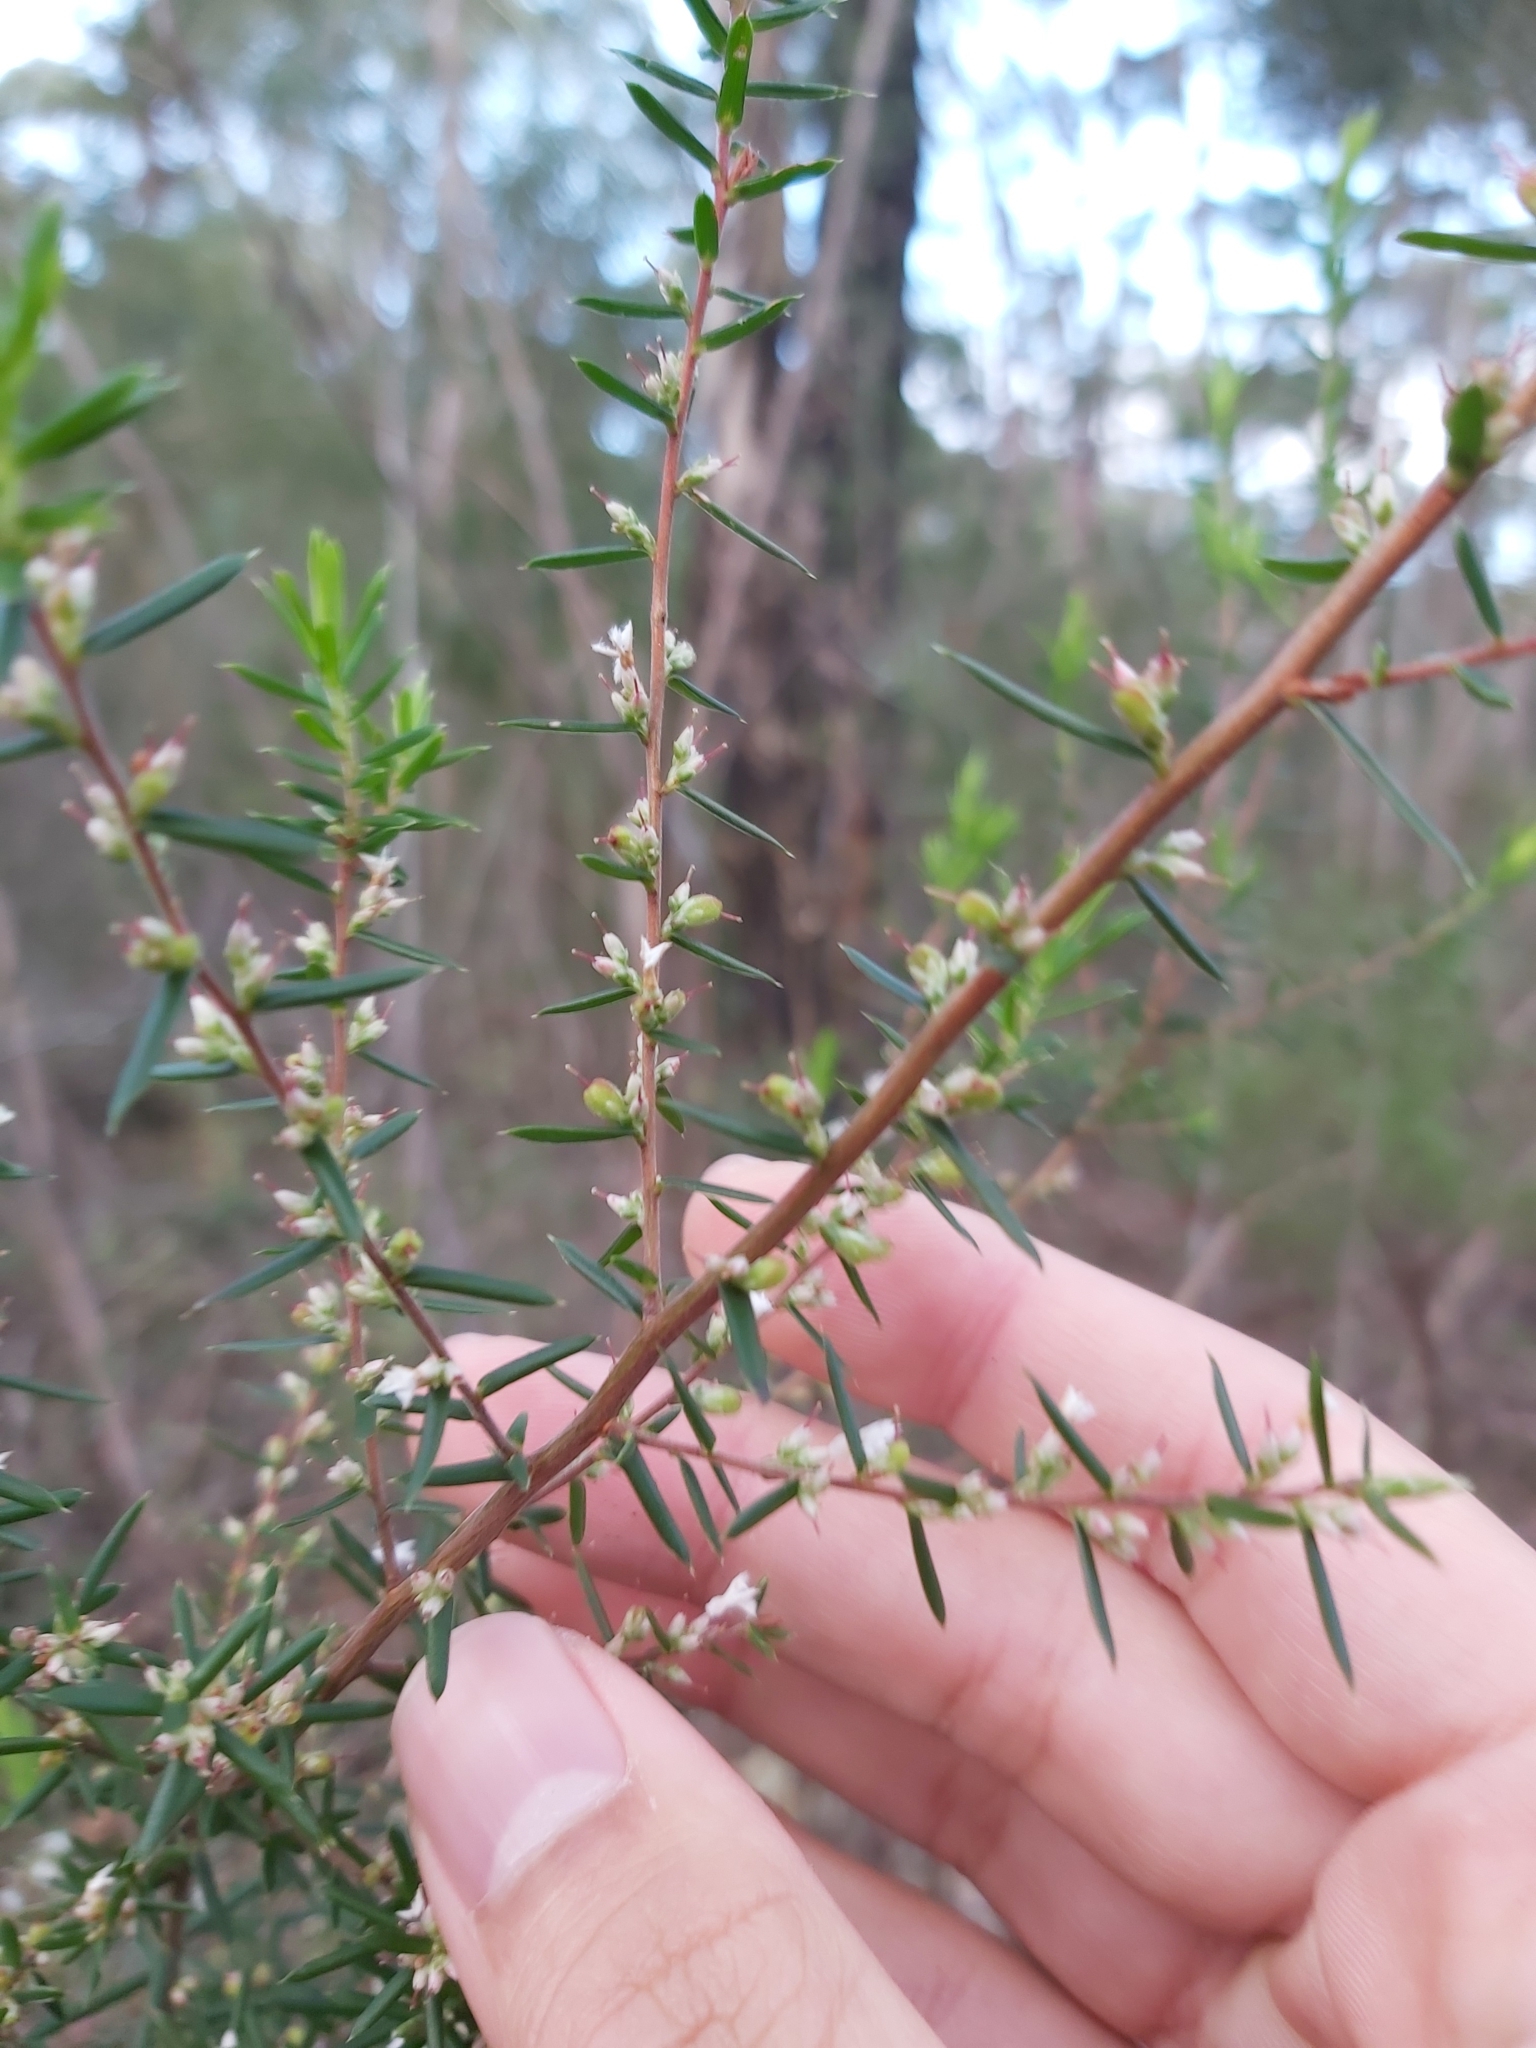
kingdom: Plantae
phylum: Tracheophyta
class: Magnoliopsida
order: Ericales
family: Ericaceae
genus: Styphelia
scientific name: Styphelia ericoides
